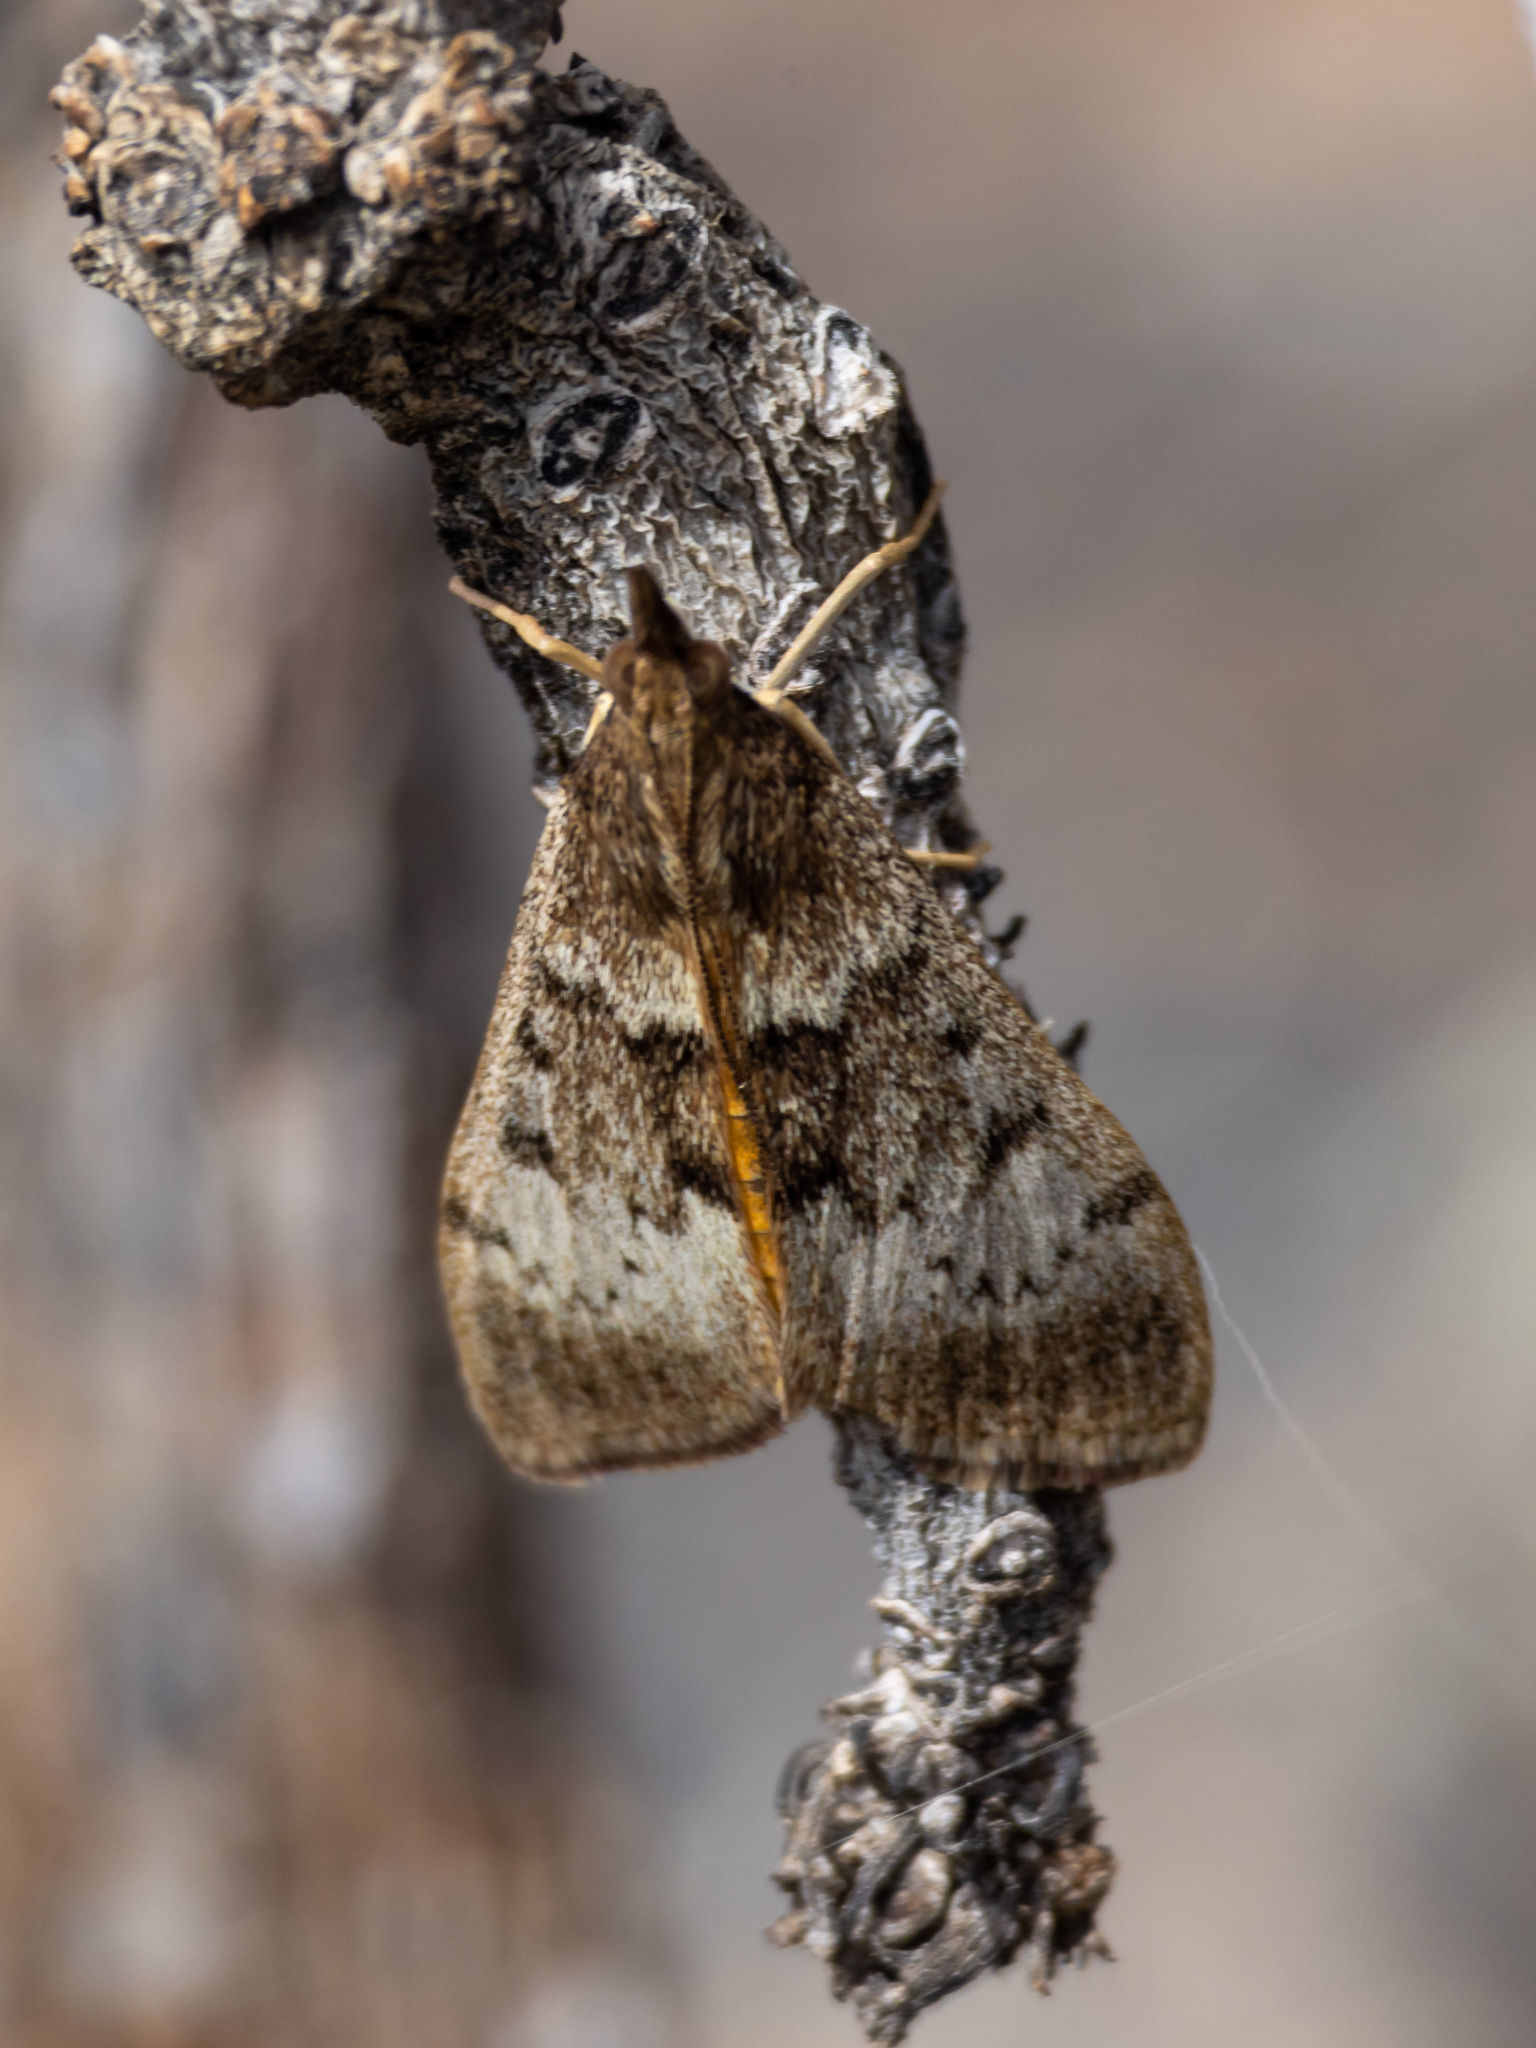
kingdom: Animalia
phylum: Arthropoda
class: Insecta
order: Lepidoptera
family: Crambidae
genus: Uresiphita
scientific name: Uresiphita gilvata
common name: Yellow-underwing pearl
